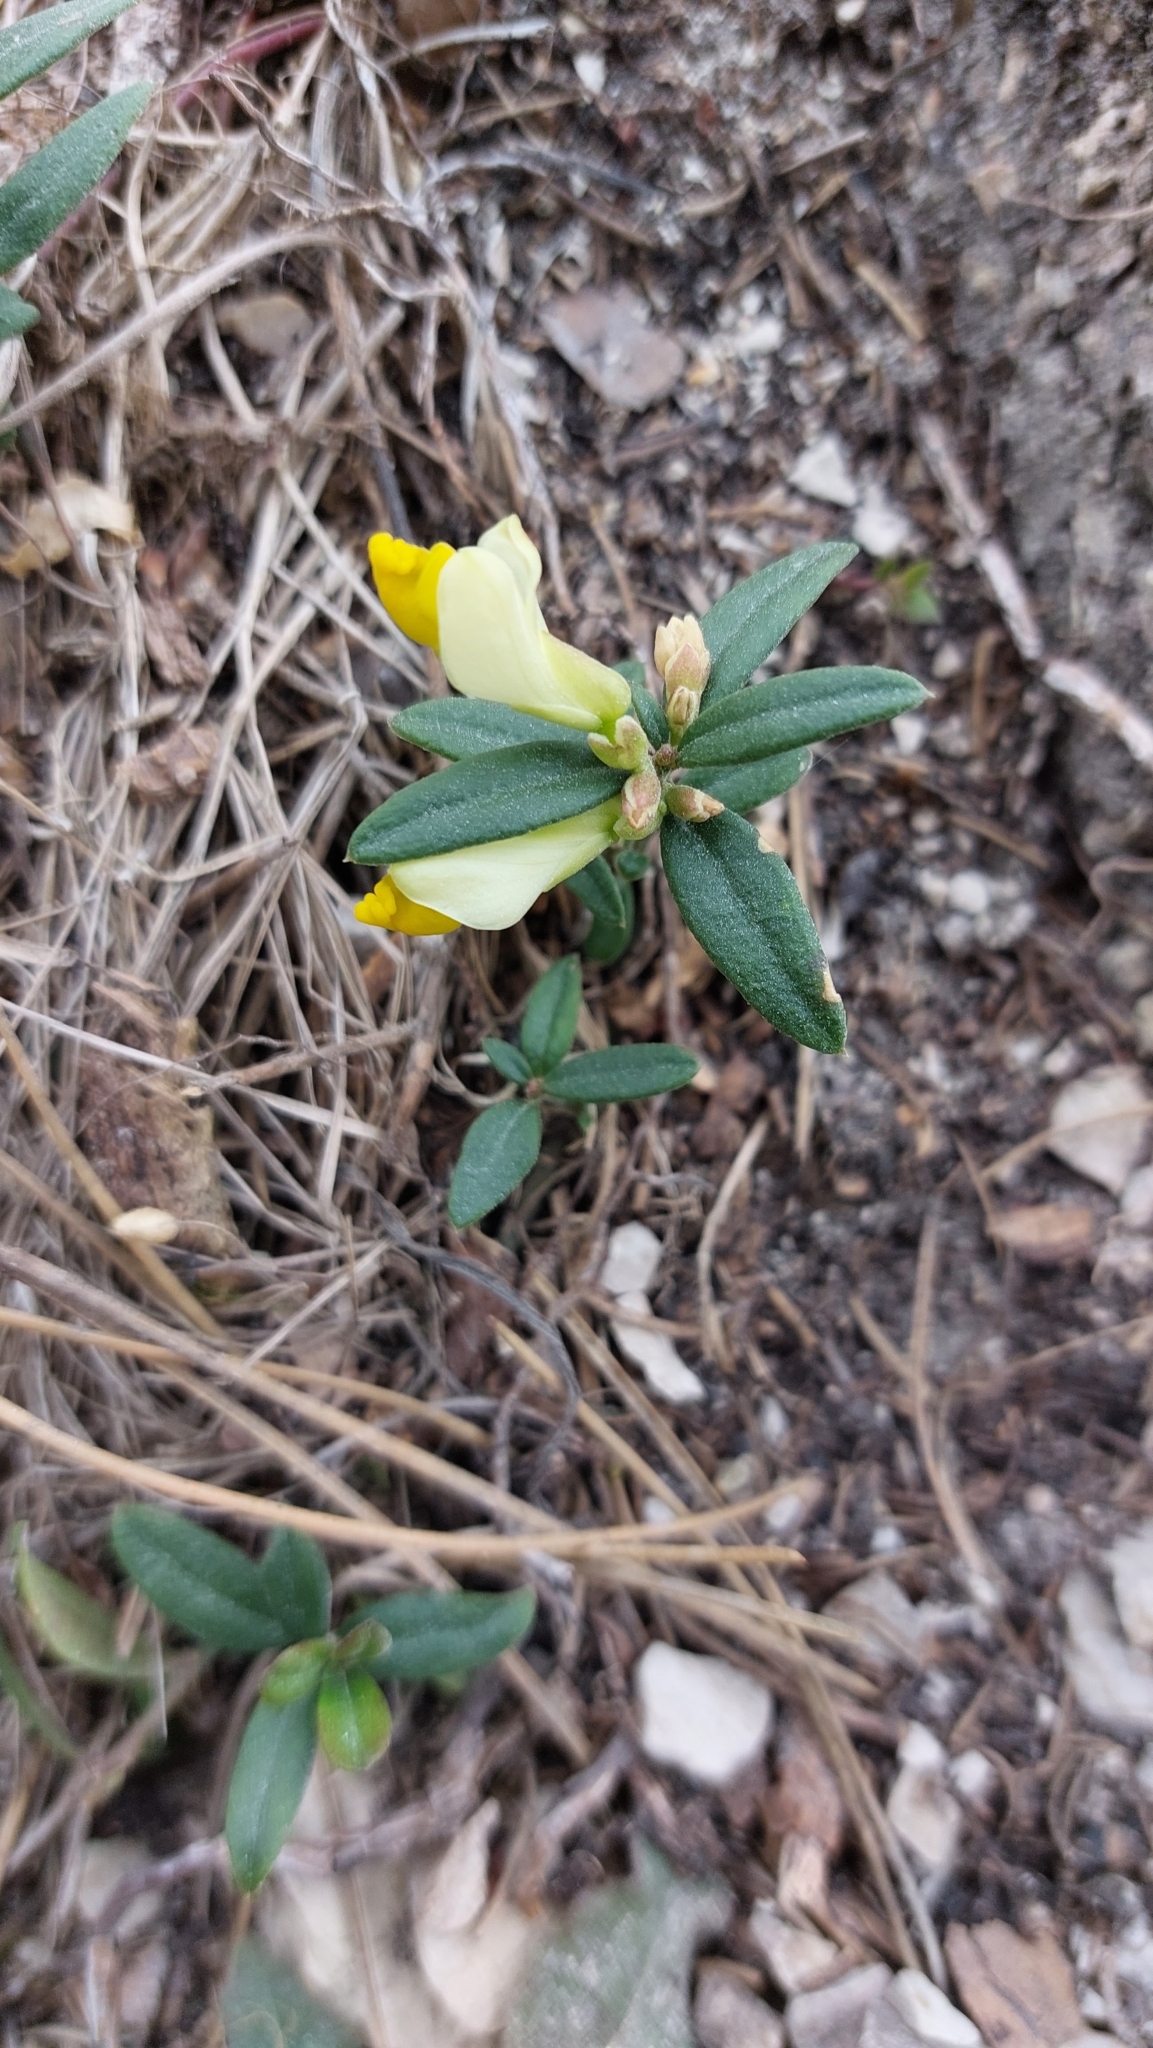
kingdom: Plantae
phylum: Tracheophyta
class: Magnoliopsida
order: Fabales
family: Polygalaceae
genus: Polygaloides
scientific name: Polygaloides chamaebuxus
